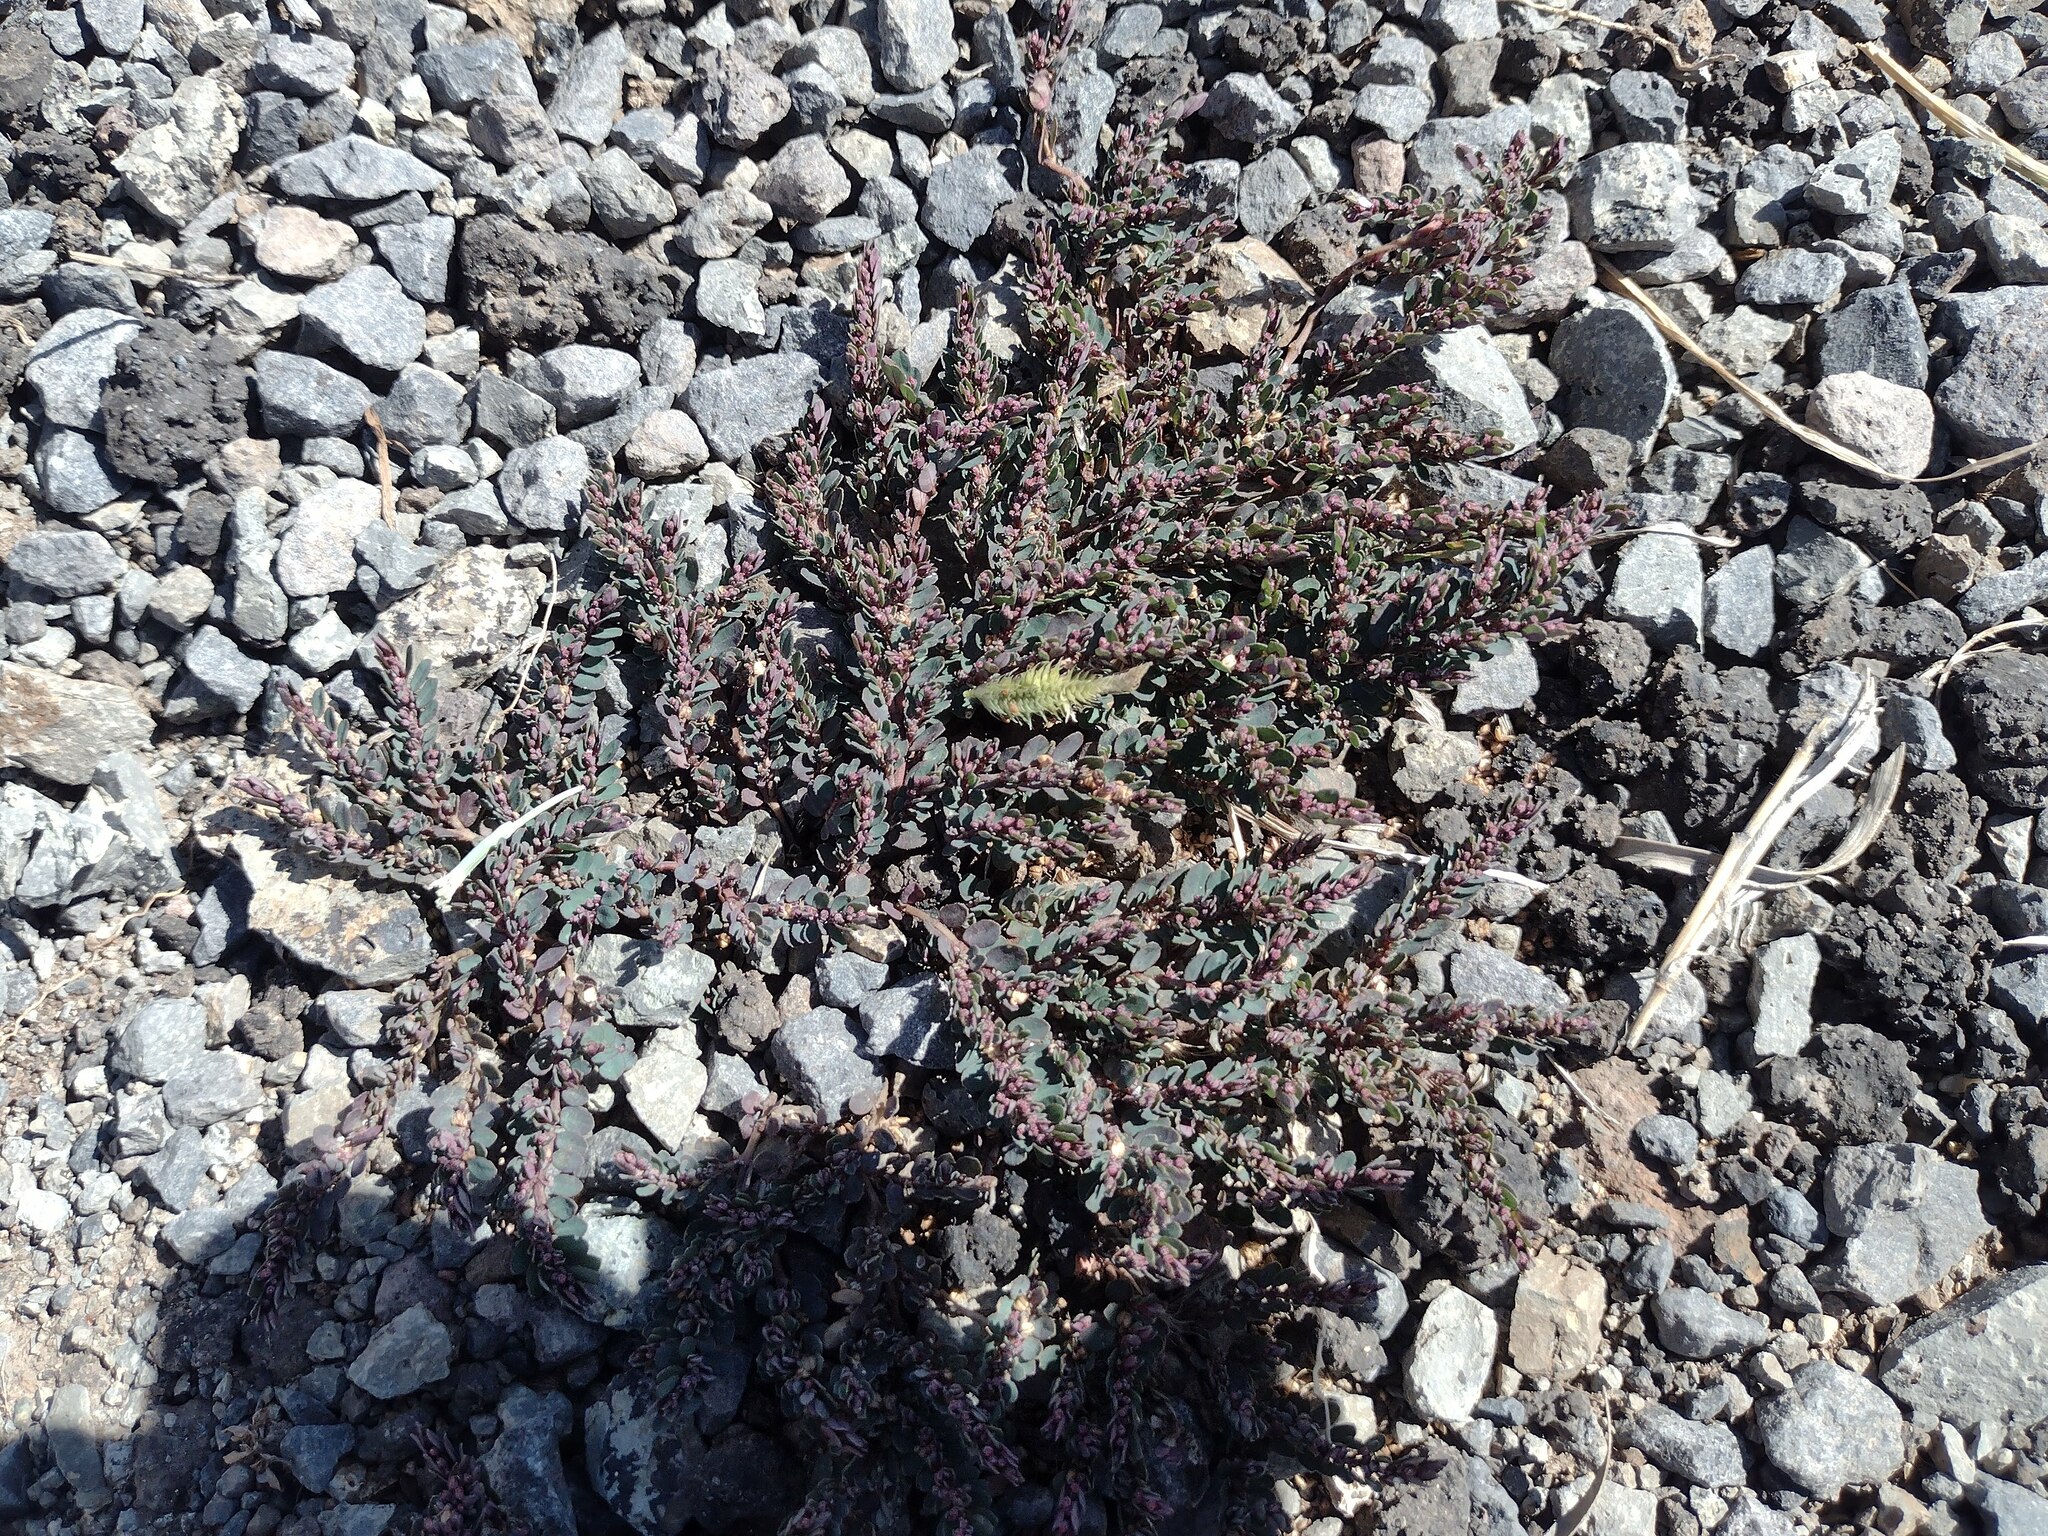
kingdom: Plantae
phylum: Tracheophyta
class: Magnoliopsida
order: Malpighiales
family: Euphorbiaceae
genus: Euphorbia
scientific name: Euphorbia prostrata
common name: Prostrate sandmat
